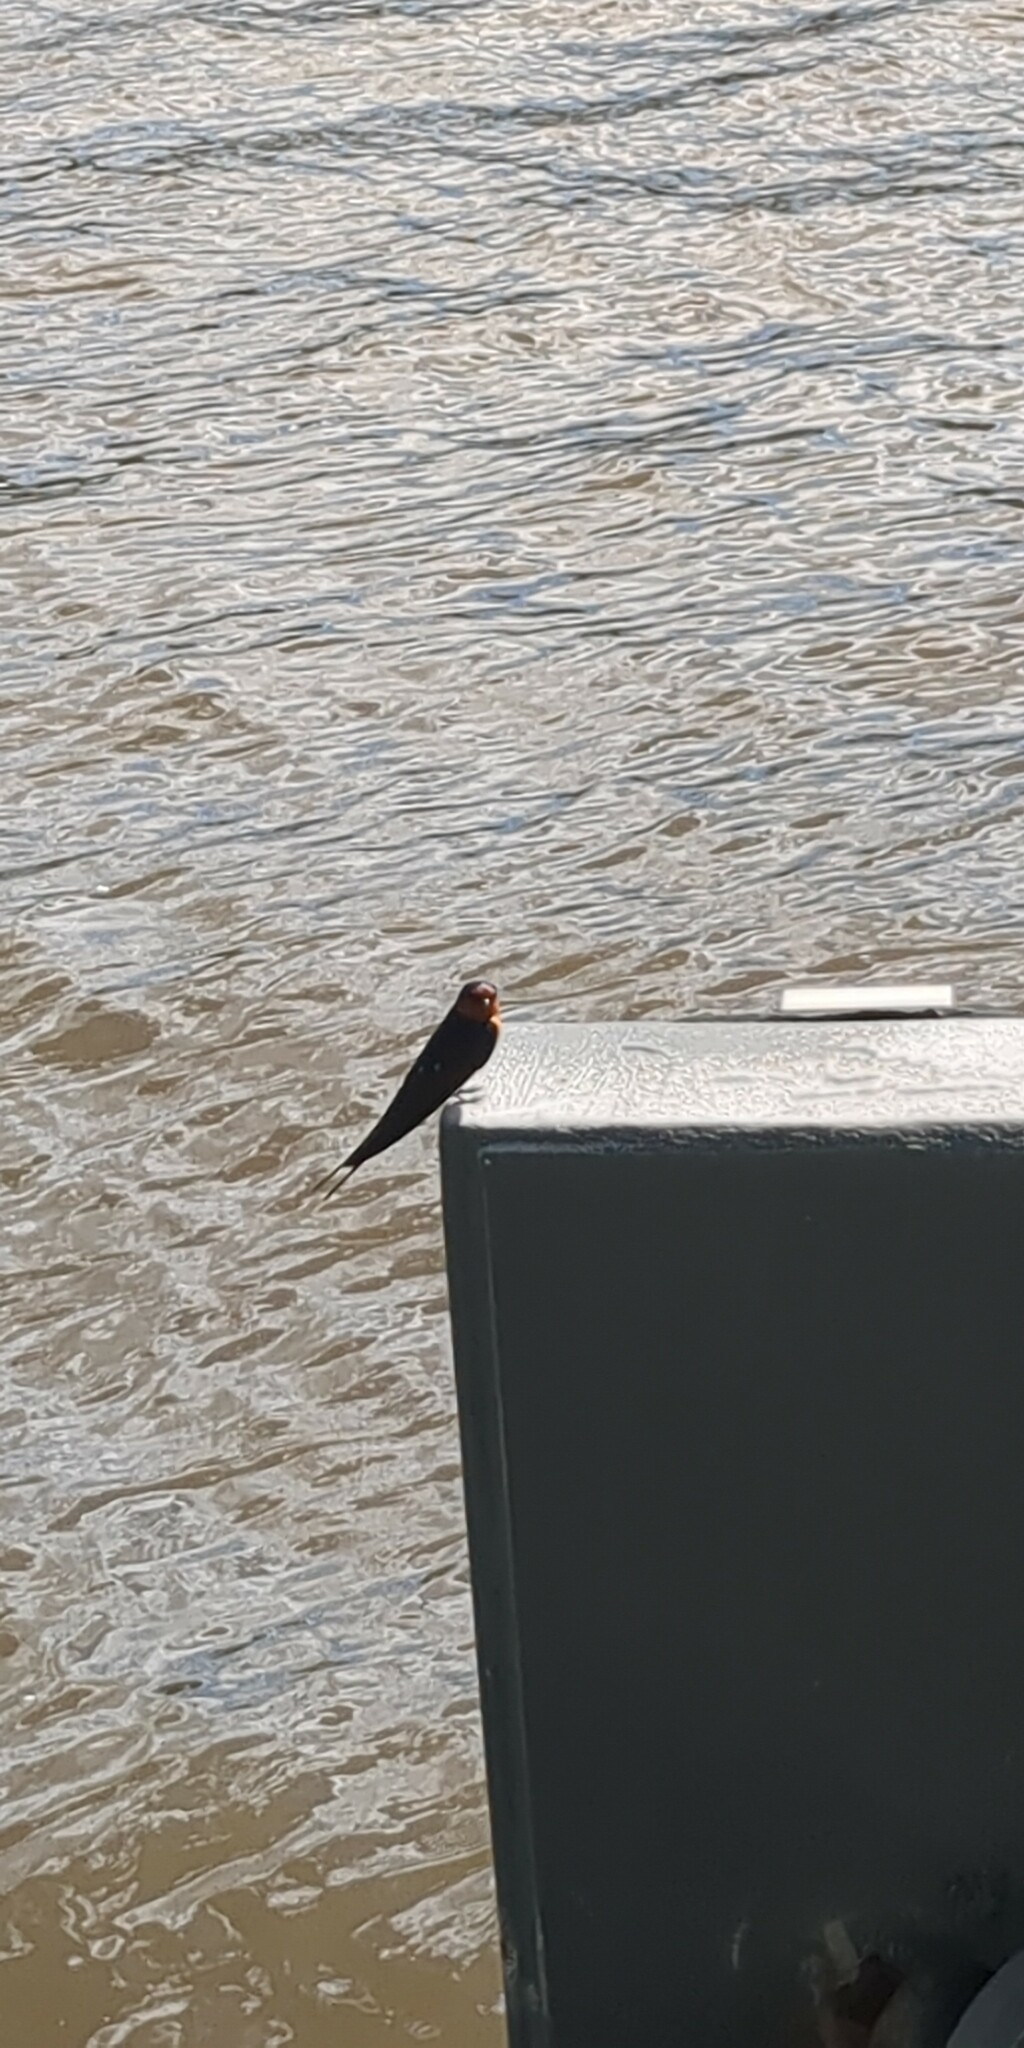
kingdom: Animalia
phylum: Chordata
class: Aves
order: Passeriformes
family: Hirundinidae
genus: Hirundo
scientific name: Hirundo neoxena
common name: Welcome swallow
